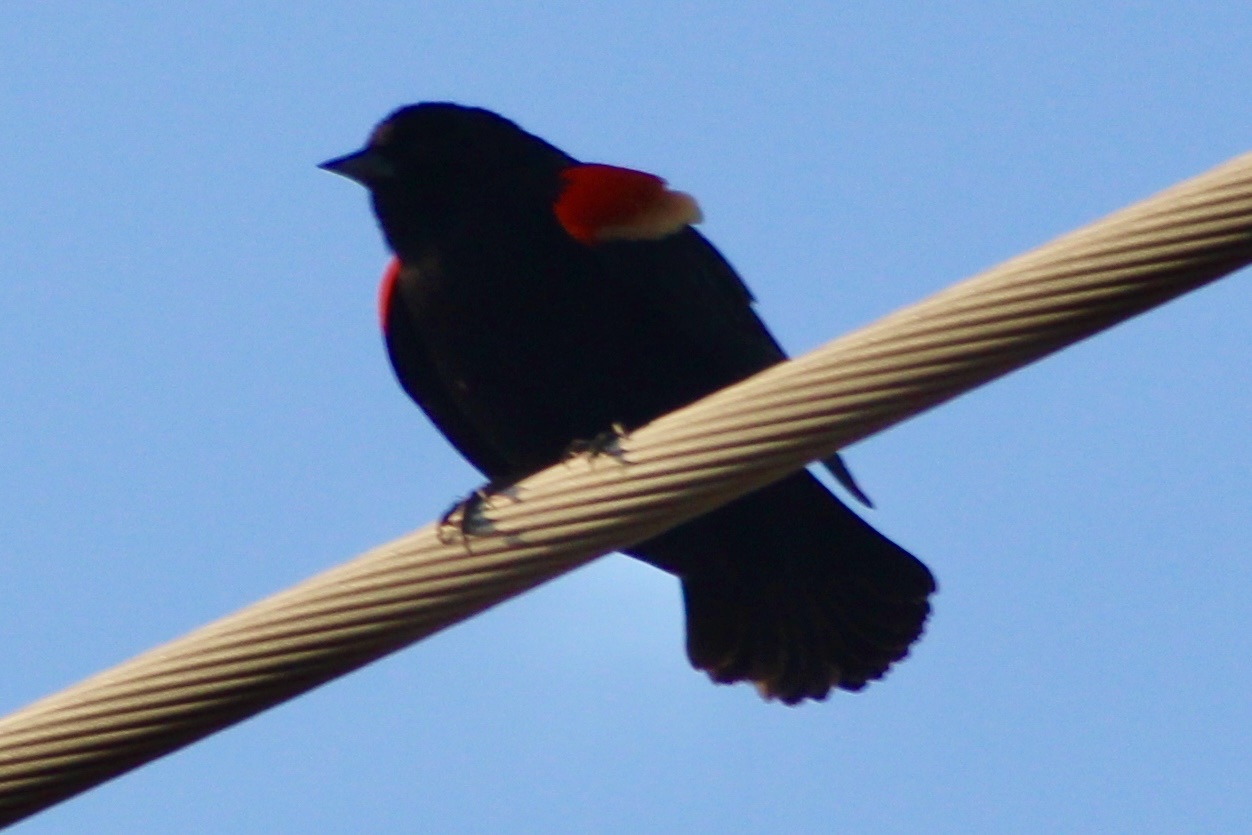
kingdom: Animalia
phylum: Chordata
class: Aves
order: Passeriformes
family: Icteridae
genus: Agelaius
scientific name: Agelaius phoeniceus
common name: Red-winged blackbird
